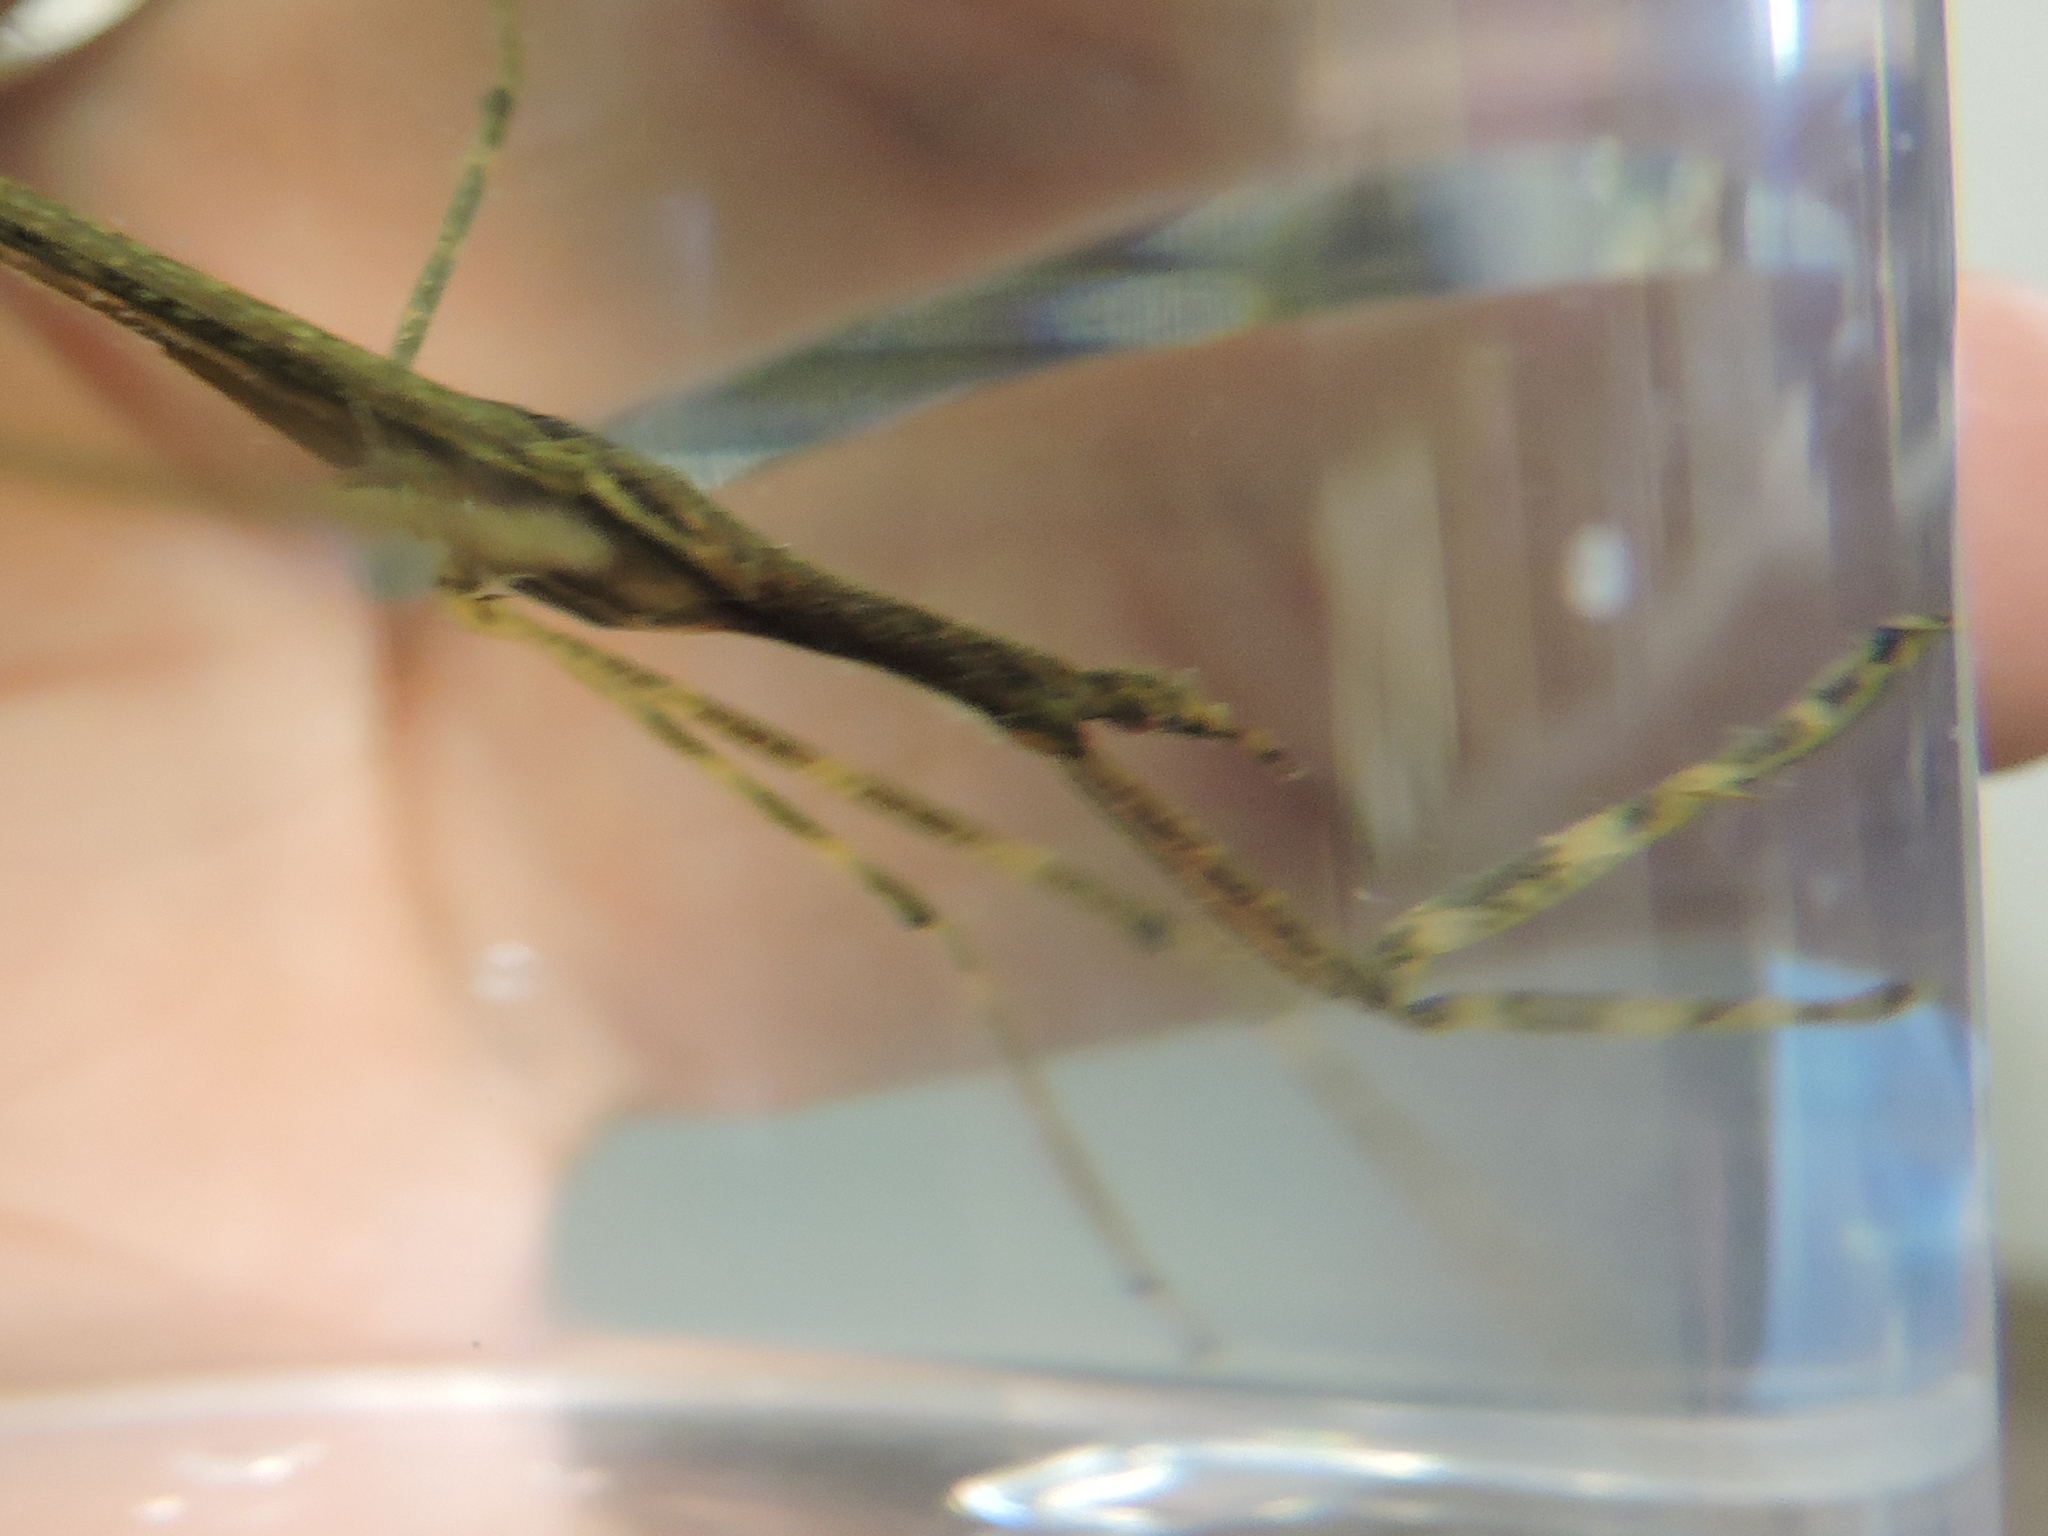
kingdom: Animalia
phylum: Arthropoda
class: Insecta
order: Hemiptera
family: Nepidae
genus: Ranatra
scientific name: Ranatra
